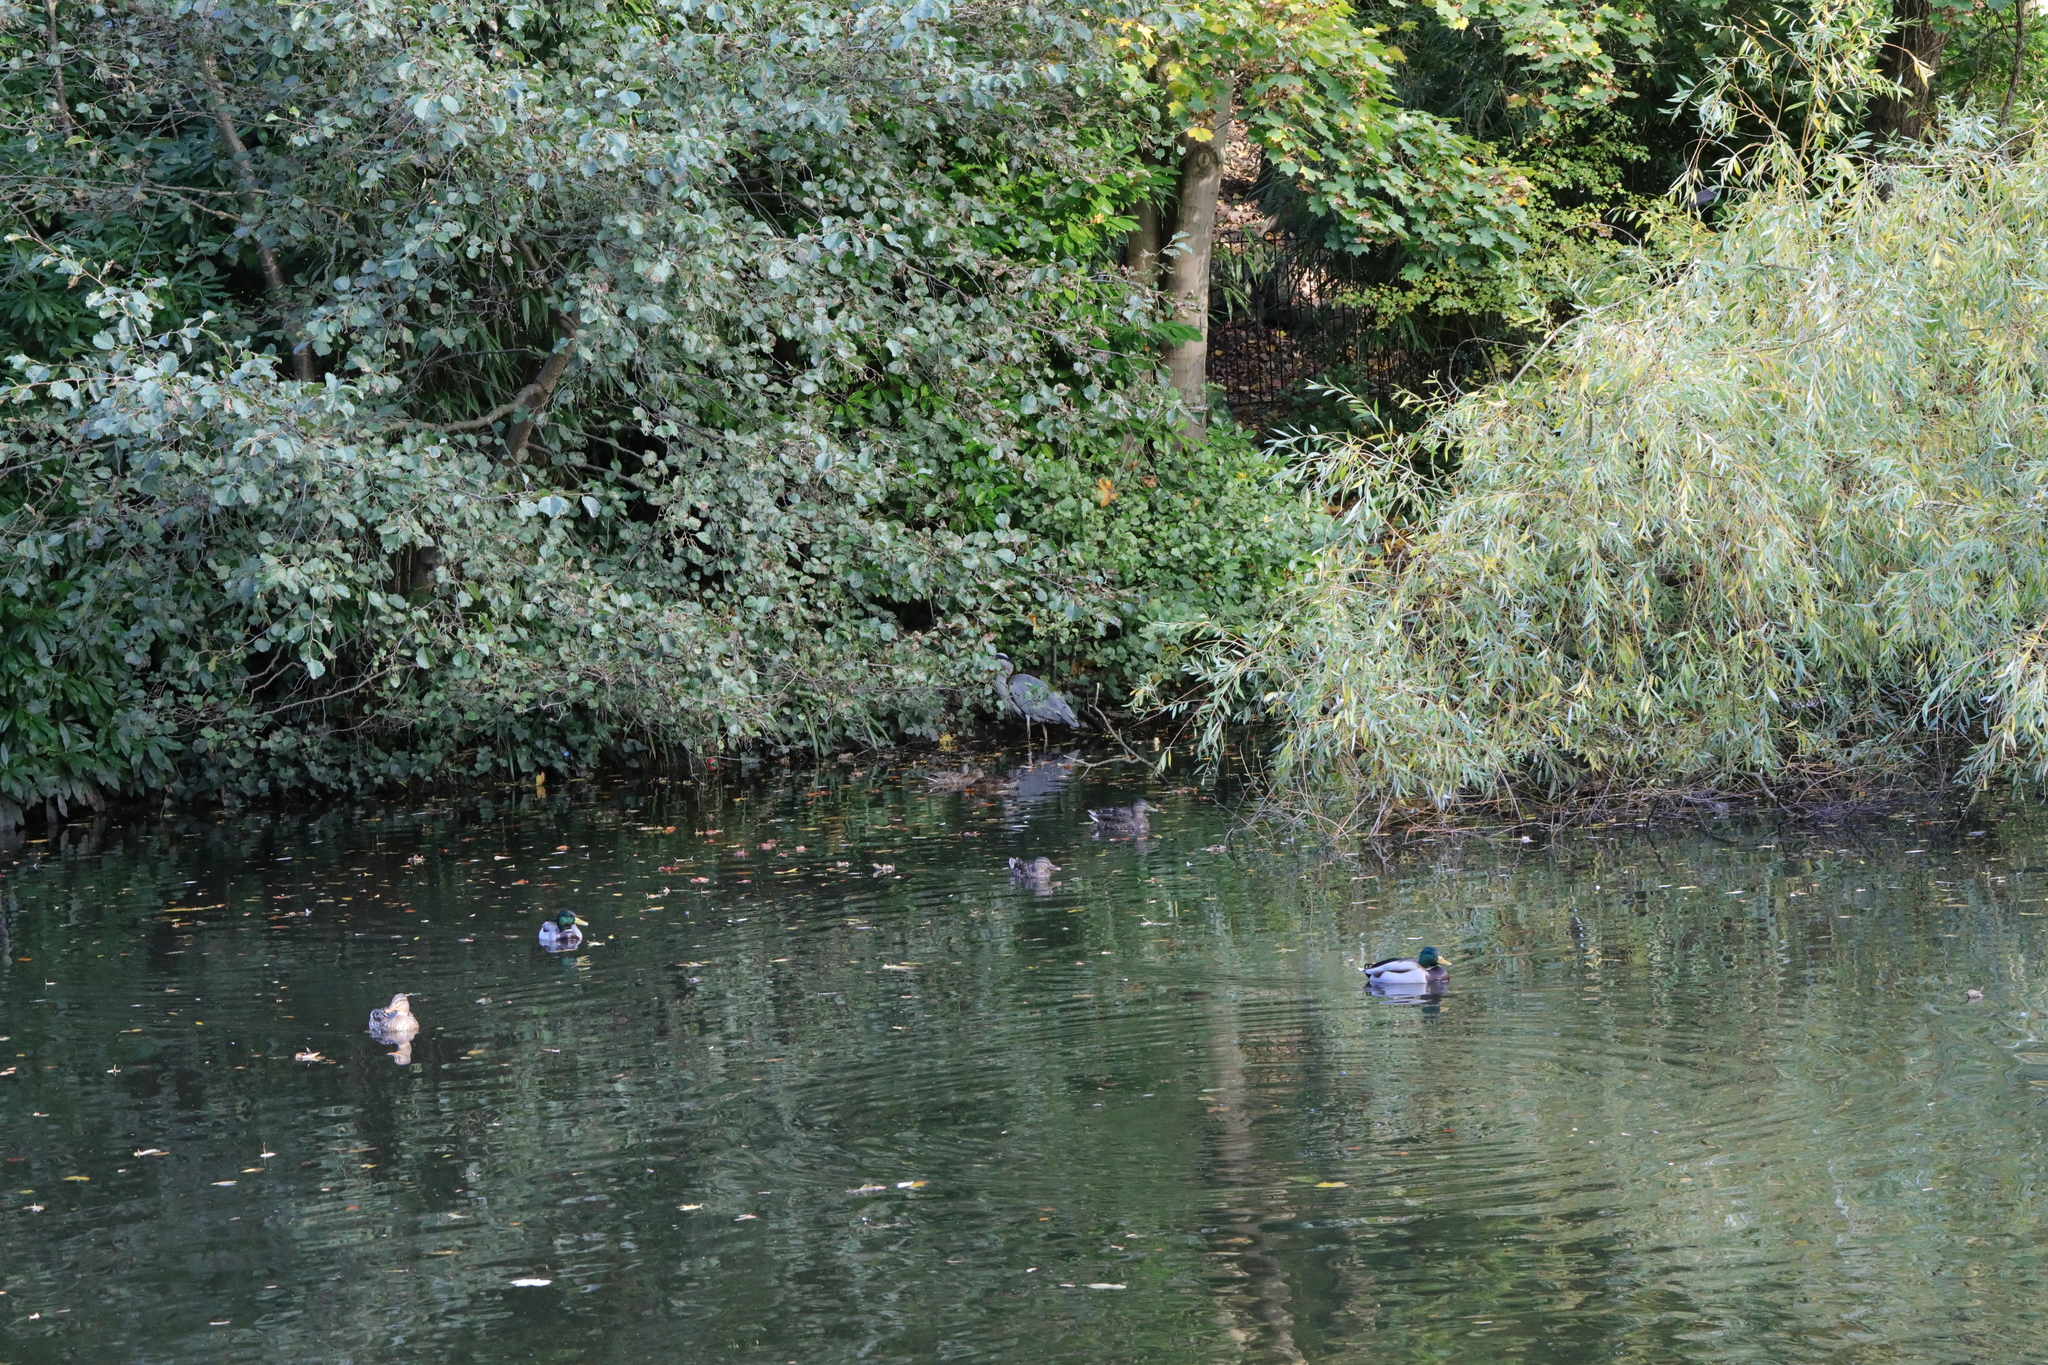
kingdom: Animalia
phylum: Chordata
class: Aves
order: Pelecaniformes
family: Ardeidae
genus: Ardea
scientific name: Ardea cinerea
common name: Grey heron
